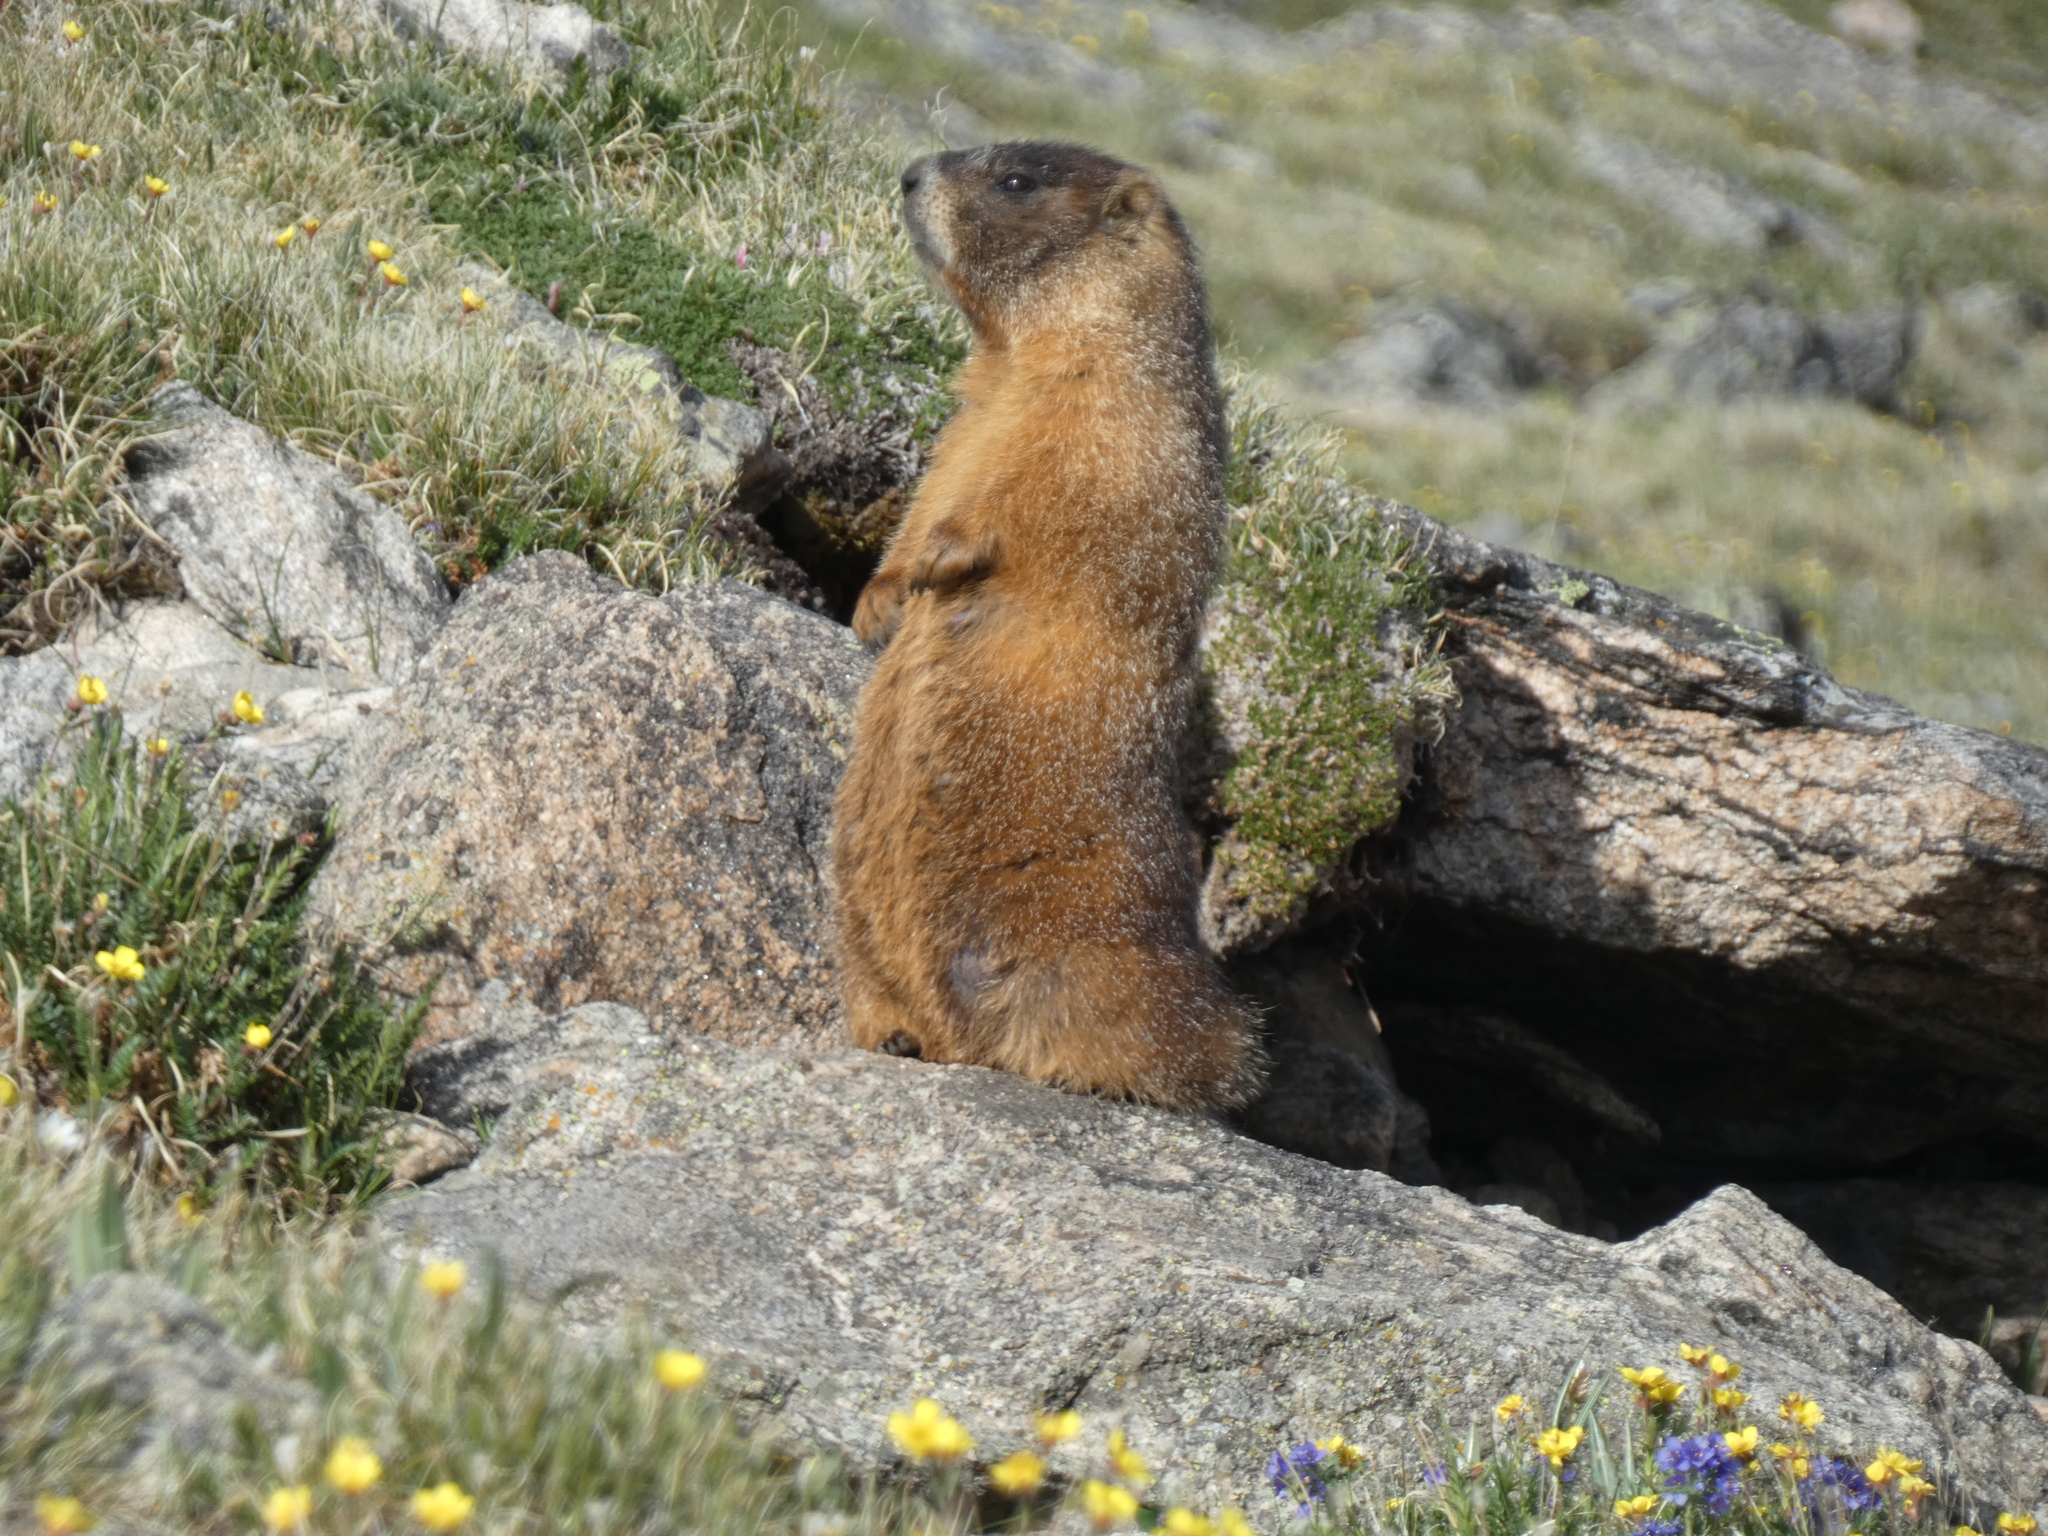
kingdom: Animalia
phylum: Chordata
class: Mammalia
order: Rodentia
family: Sciuridae
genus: Marmota
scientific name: Marmota flaviventris
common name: Yellow-bellied marmot
